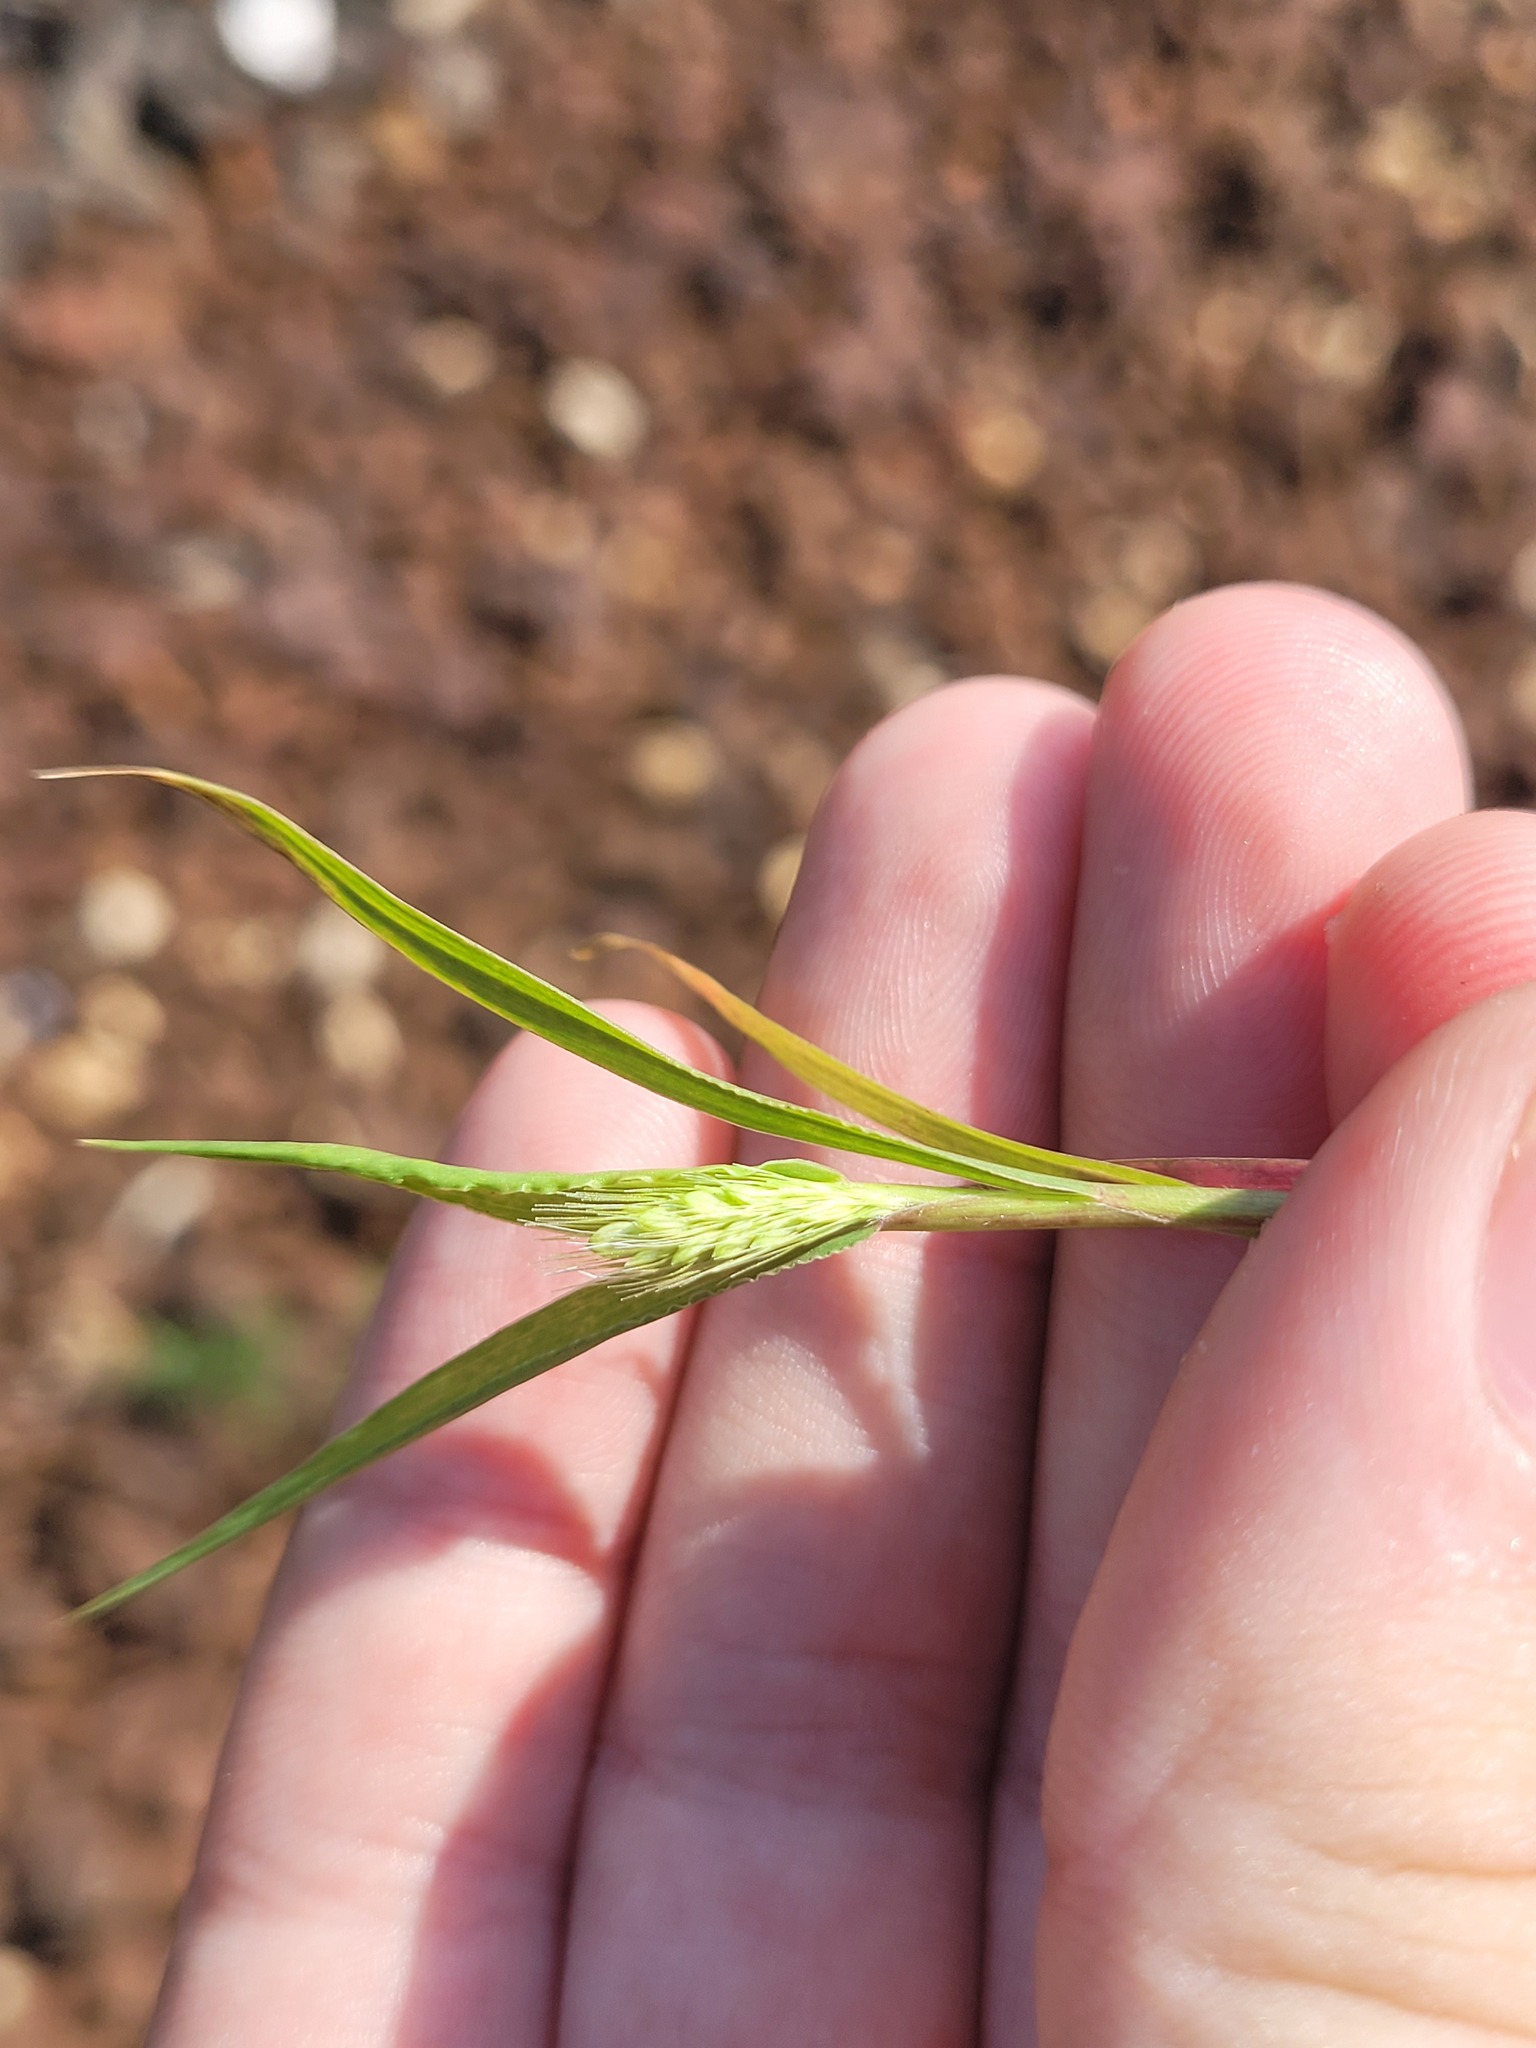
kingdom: Plantae
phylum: Tracheophyta
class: Liliopsida
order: Poales
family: Poaceae
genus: Setaria
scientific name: Setaria viridis
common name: Green bristlegrass
